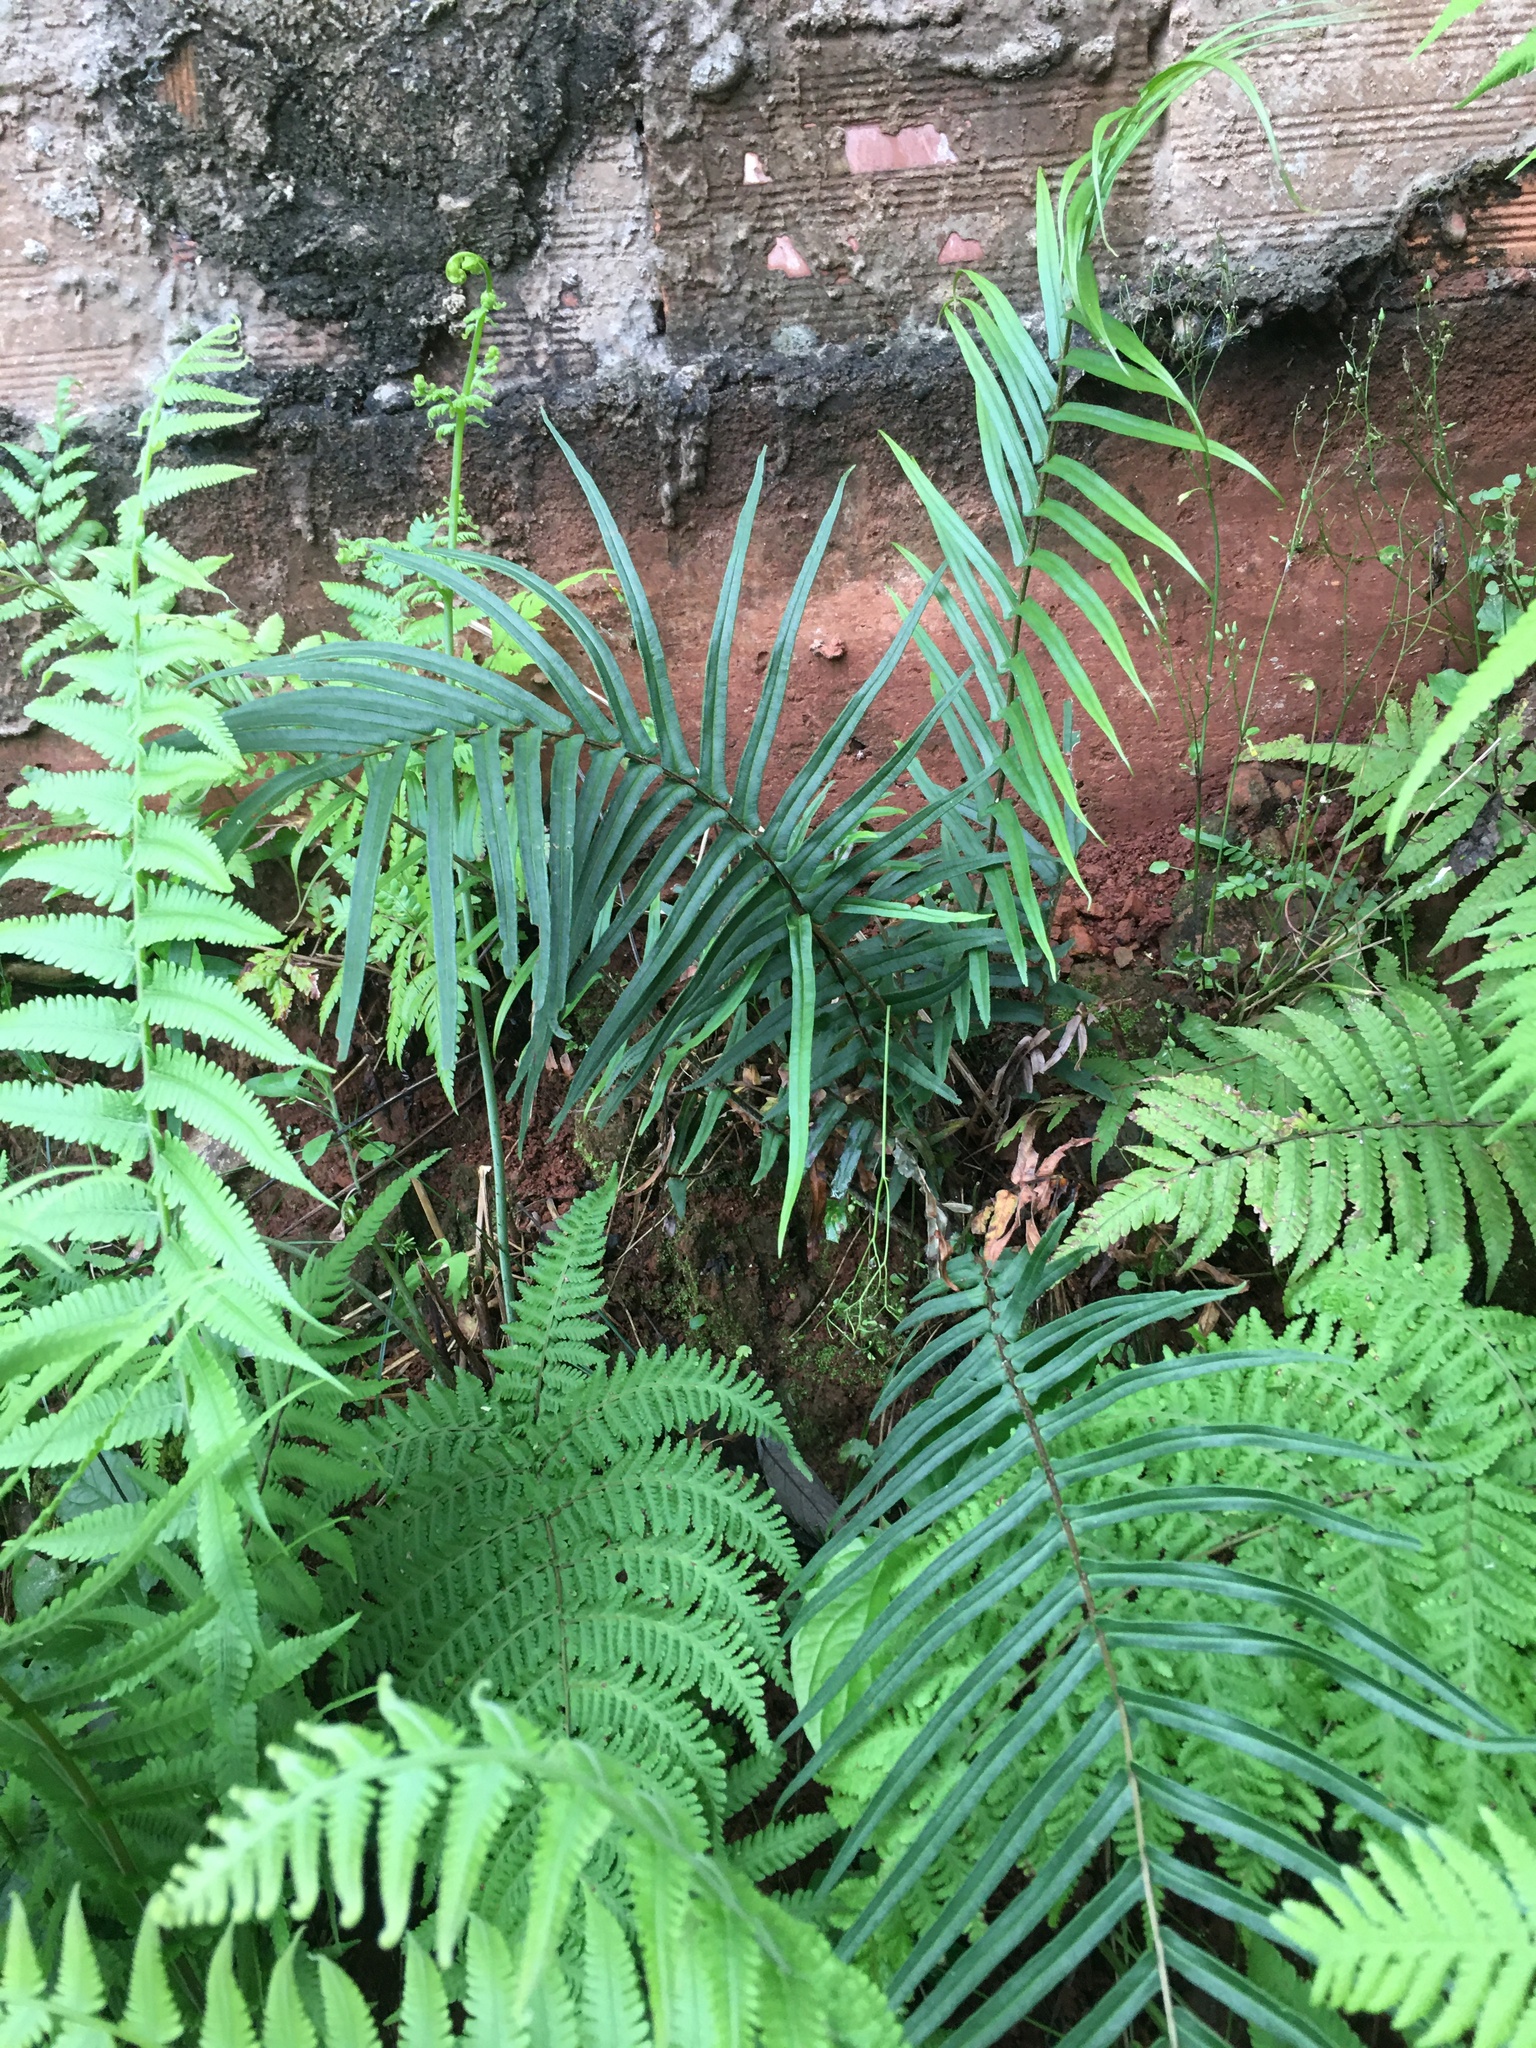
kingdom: Plantae
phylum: Tracheophyta
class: Polypodiopsida
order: Polypodiales
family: Pteridaceae
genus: Pteris
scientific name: Pteris vittata
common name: Ladder brake
